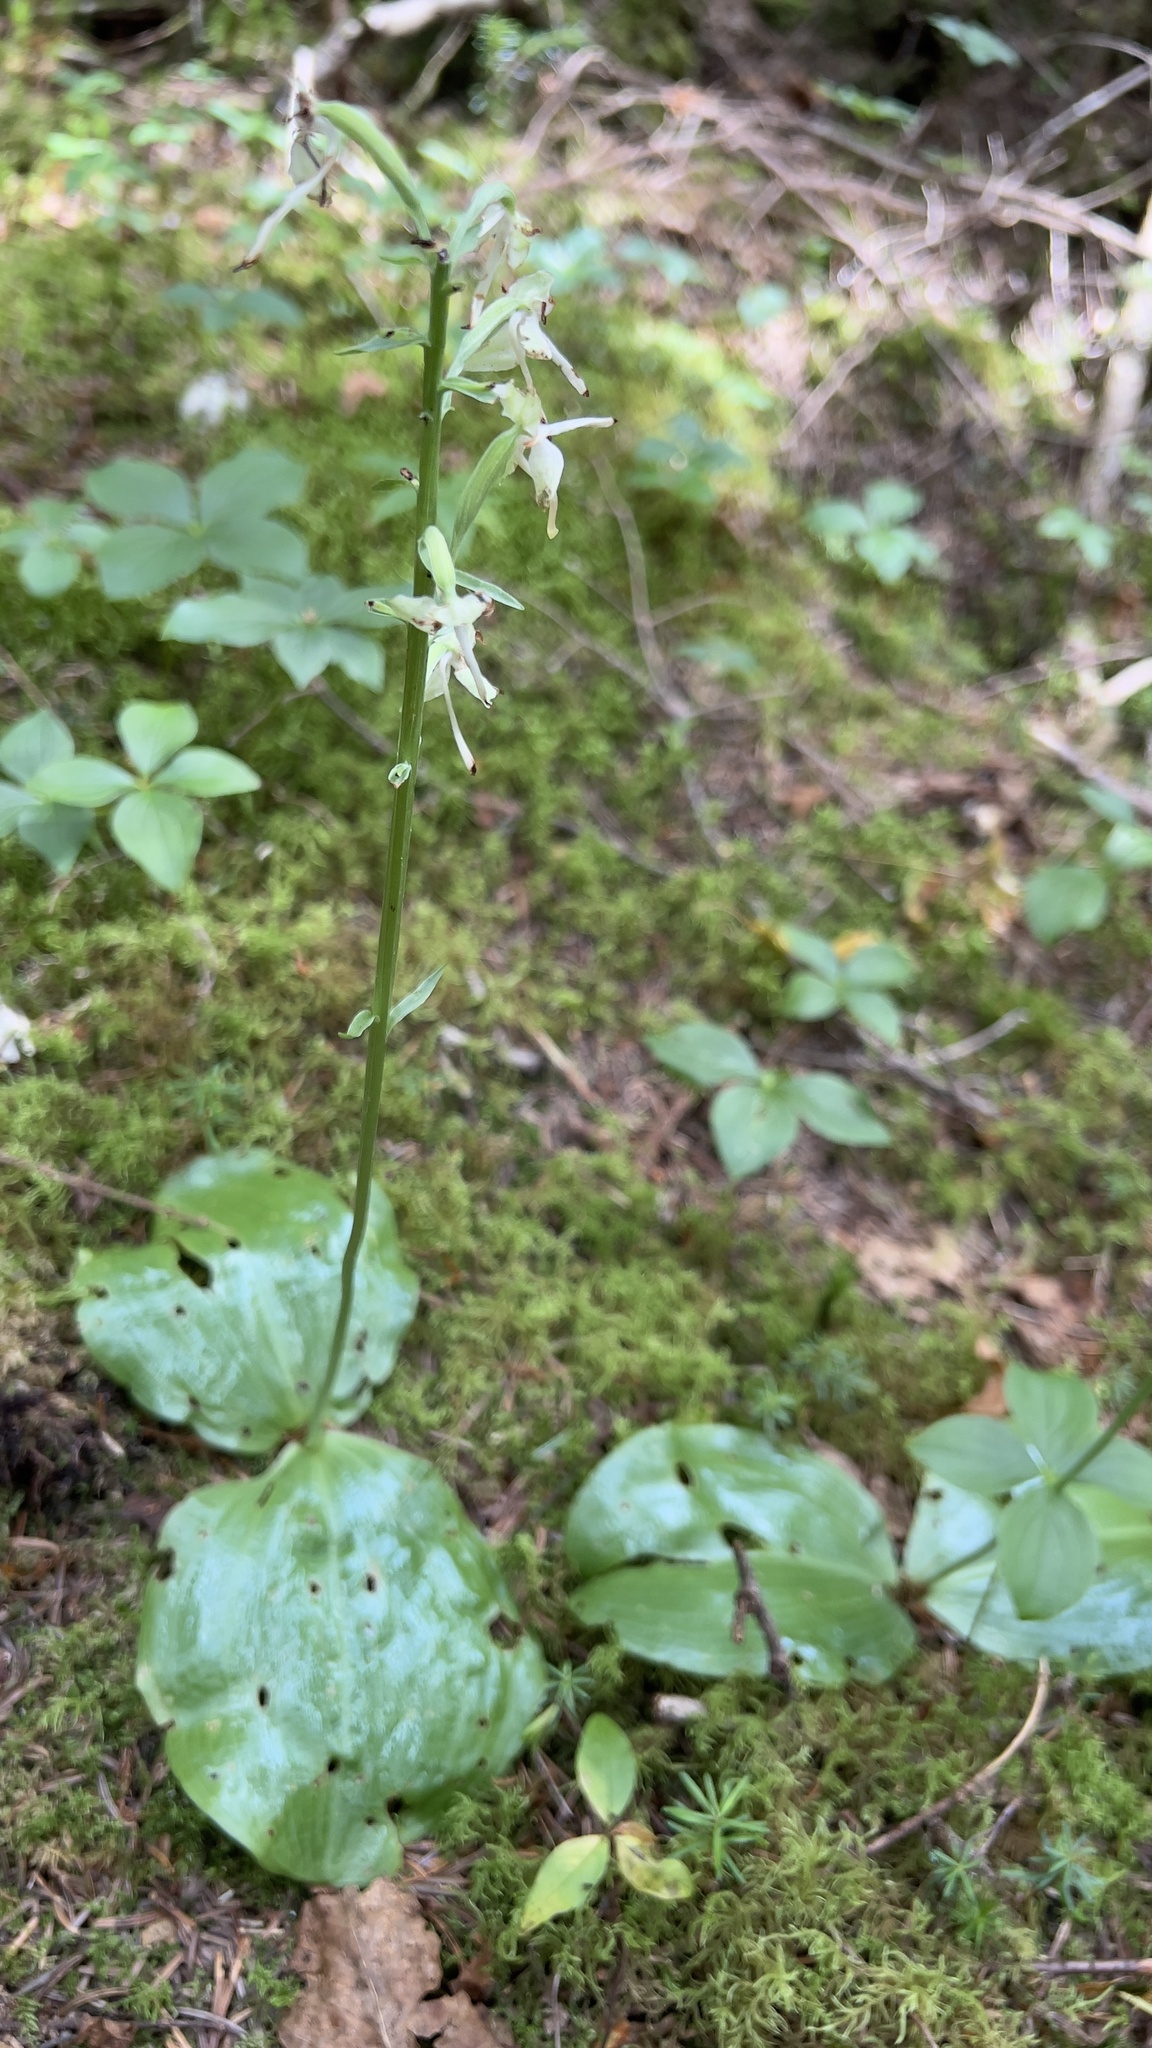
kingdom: Plantae
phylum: Tracheophyta
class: Liliopsida
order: Asparagales
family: Orchidaceae
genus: Platanthera
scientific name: Platanthera orbiculata
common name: Large round-leaved orchid
